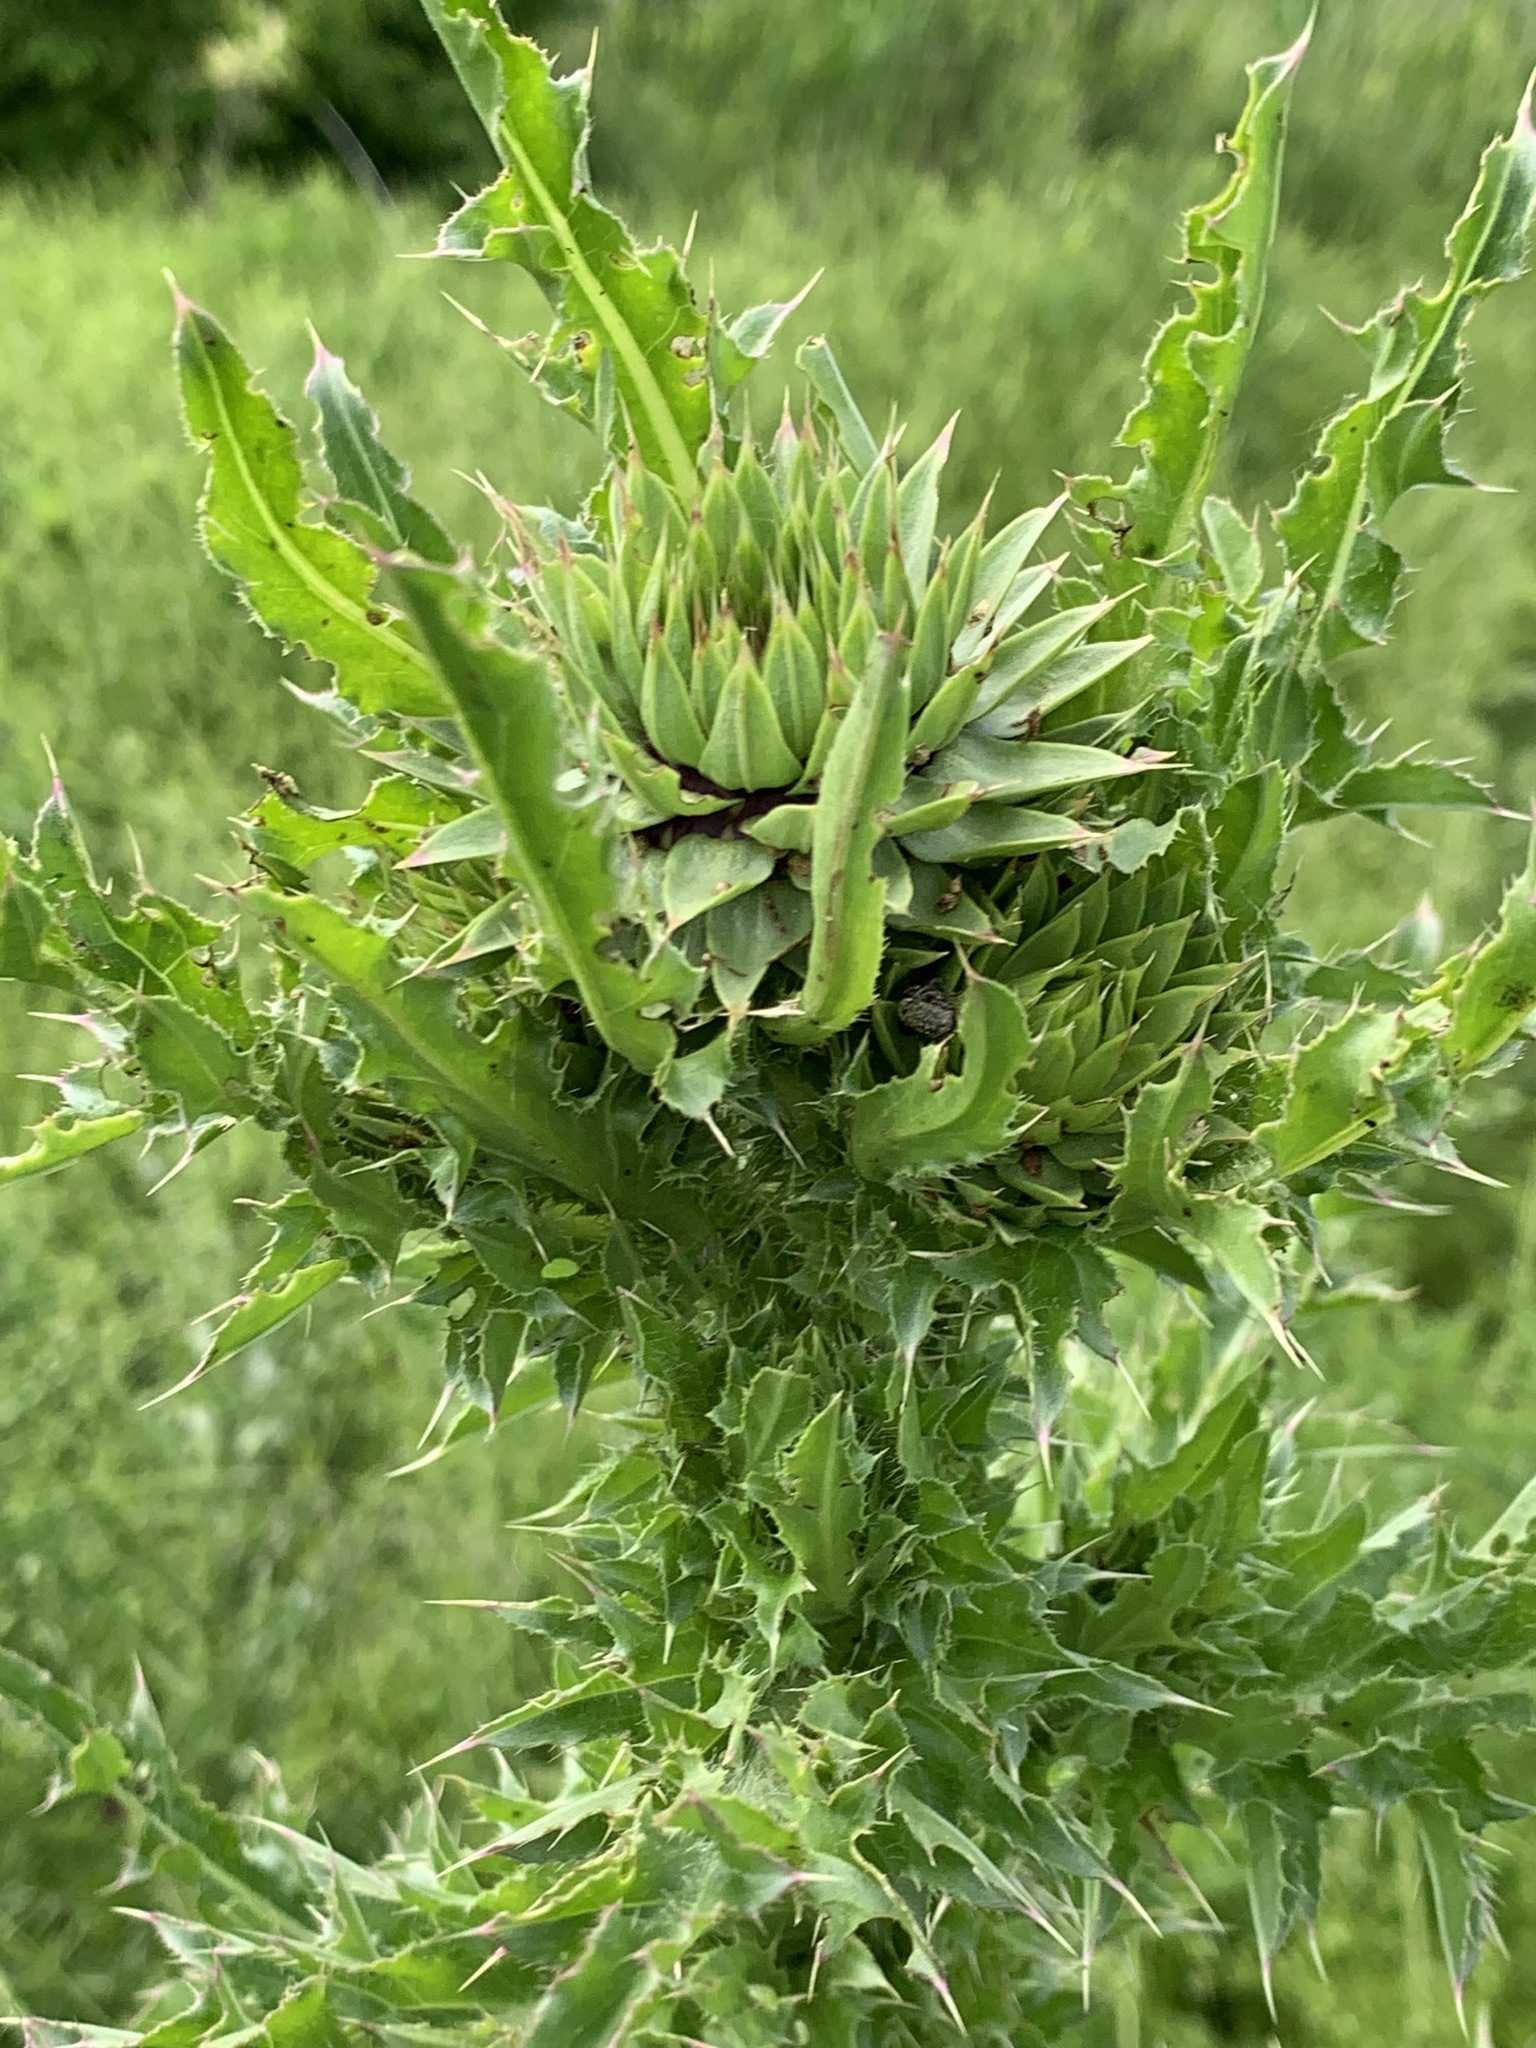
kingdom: Plantae
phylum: Tracheophyta
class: Magnoliopsida
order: Asterales
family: Asteraceae
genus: Carduus
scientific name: Carduus nutans
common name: Musk thistle
